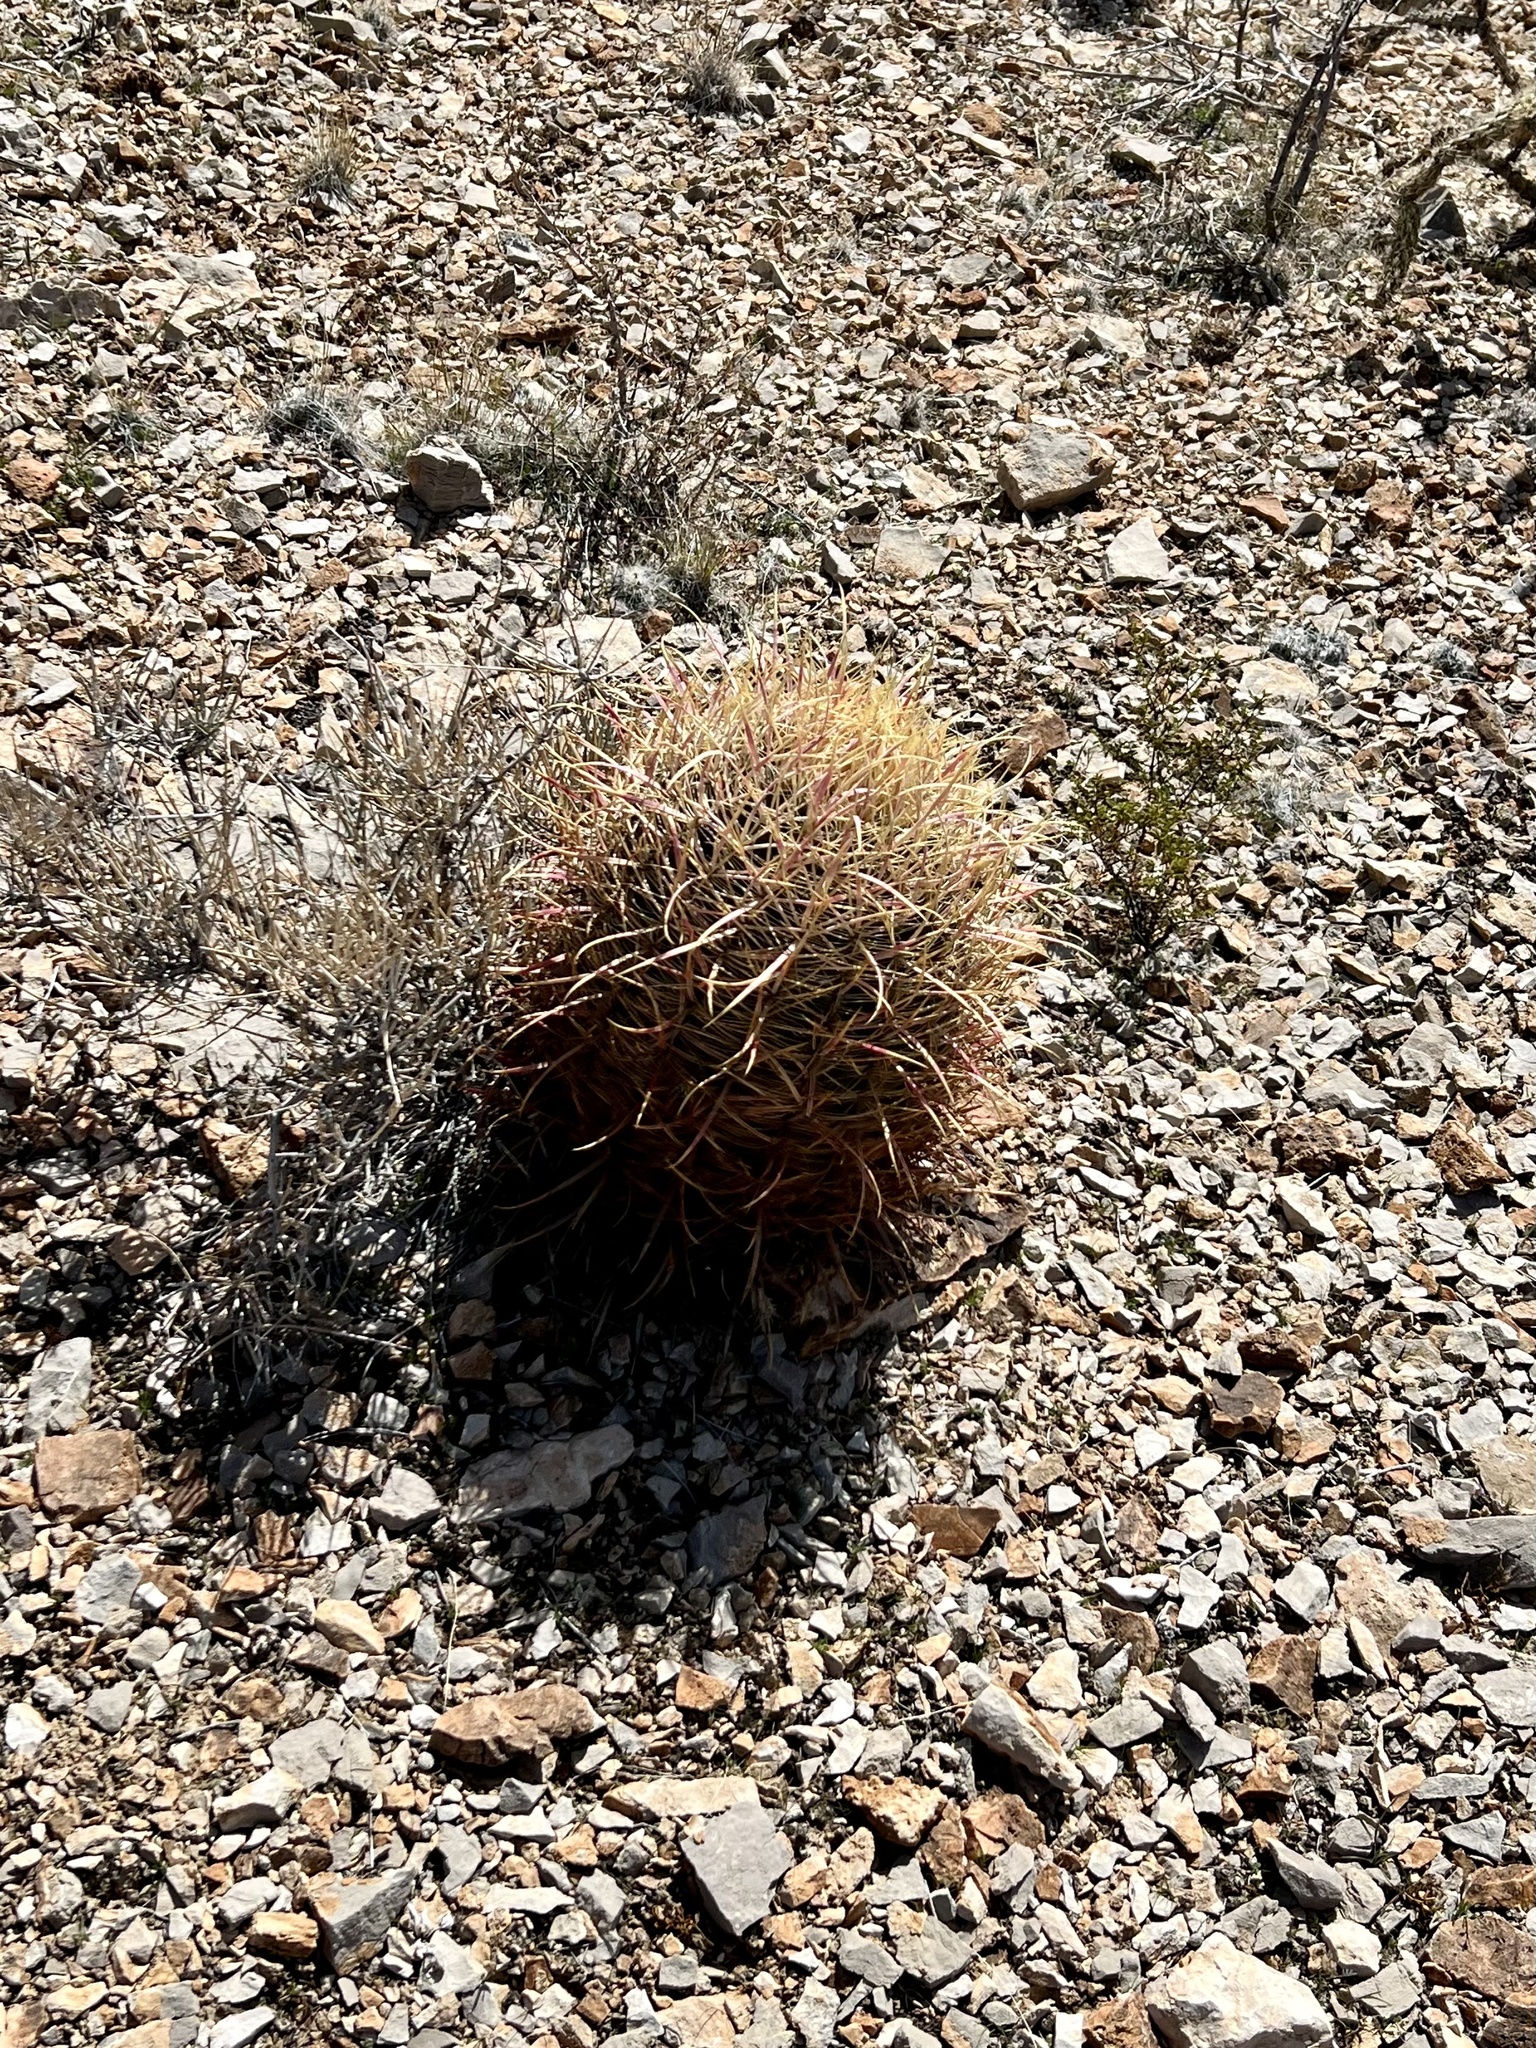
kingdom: Plantae
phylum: Tracheophyta
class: Magnoliopsida
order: Caryophyllales
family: Cactaceae
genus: Ferocactus
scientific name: Ferocactus cylindraceus
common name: California barrel cactus
